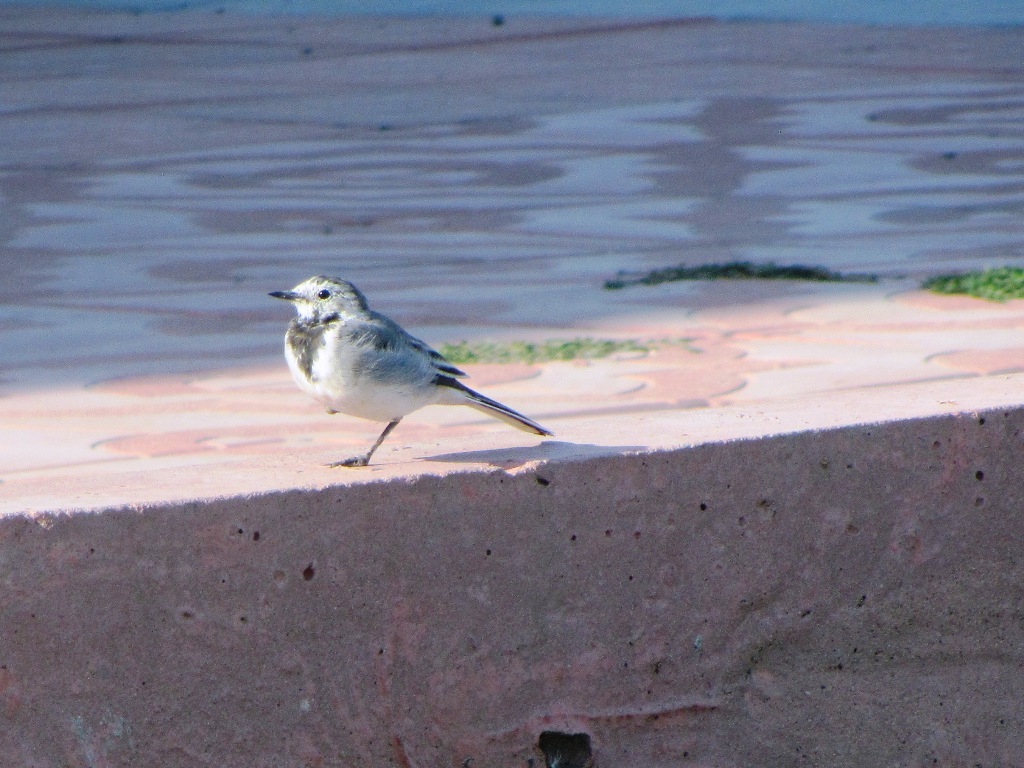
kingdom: Animalia
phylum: Chordata
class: Aves
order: Passeriformes
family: Motacillidae
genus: Motacilla
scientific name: Motacilla alba
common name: White wagtail
